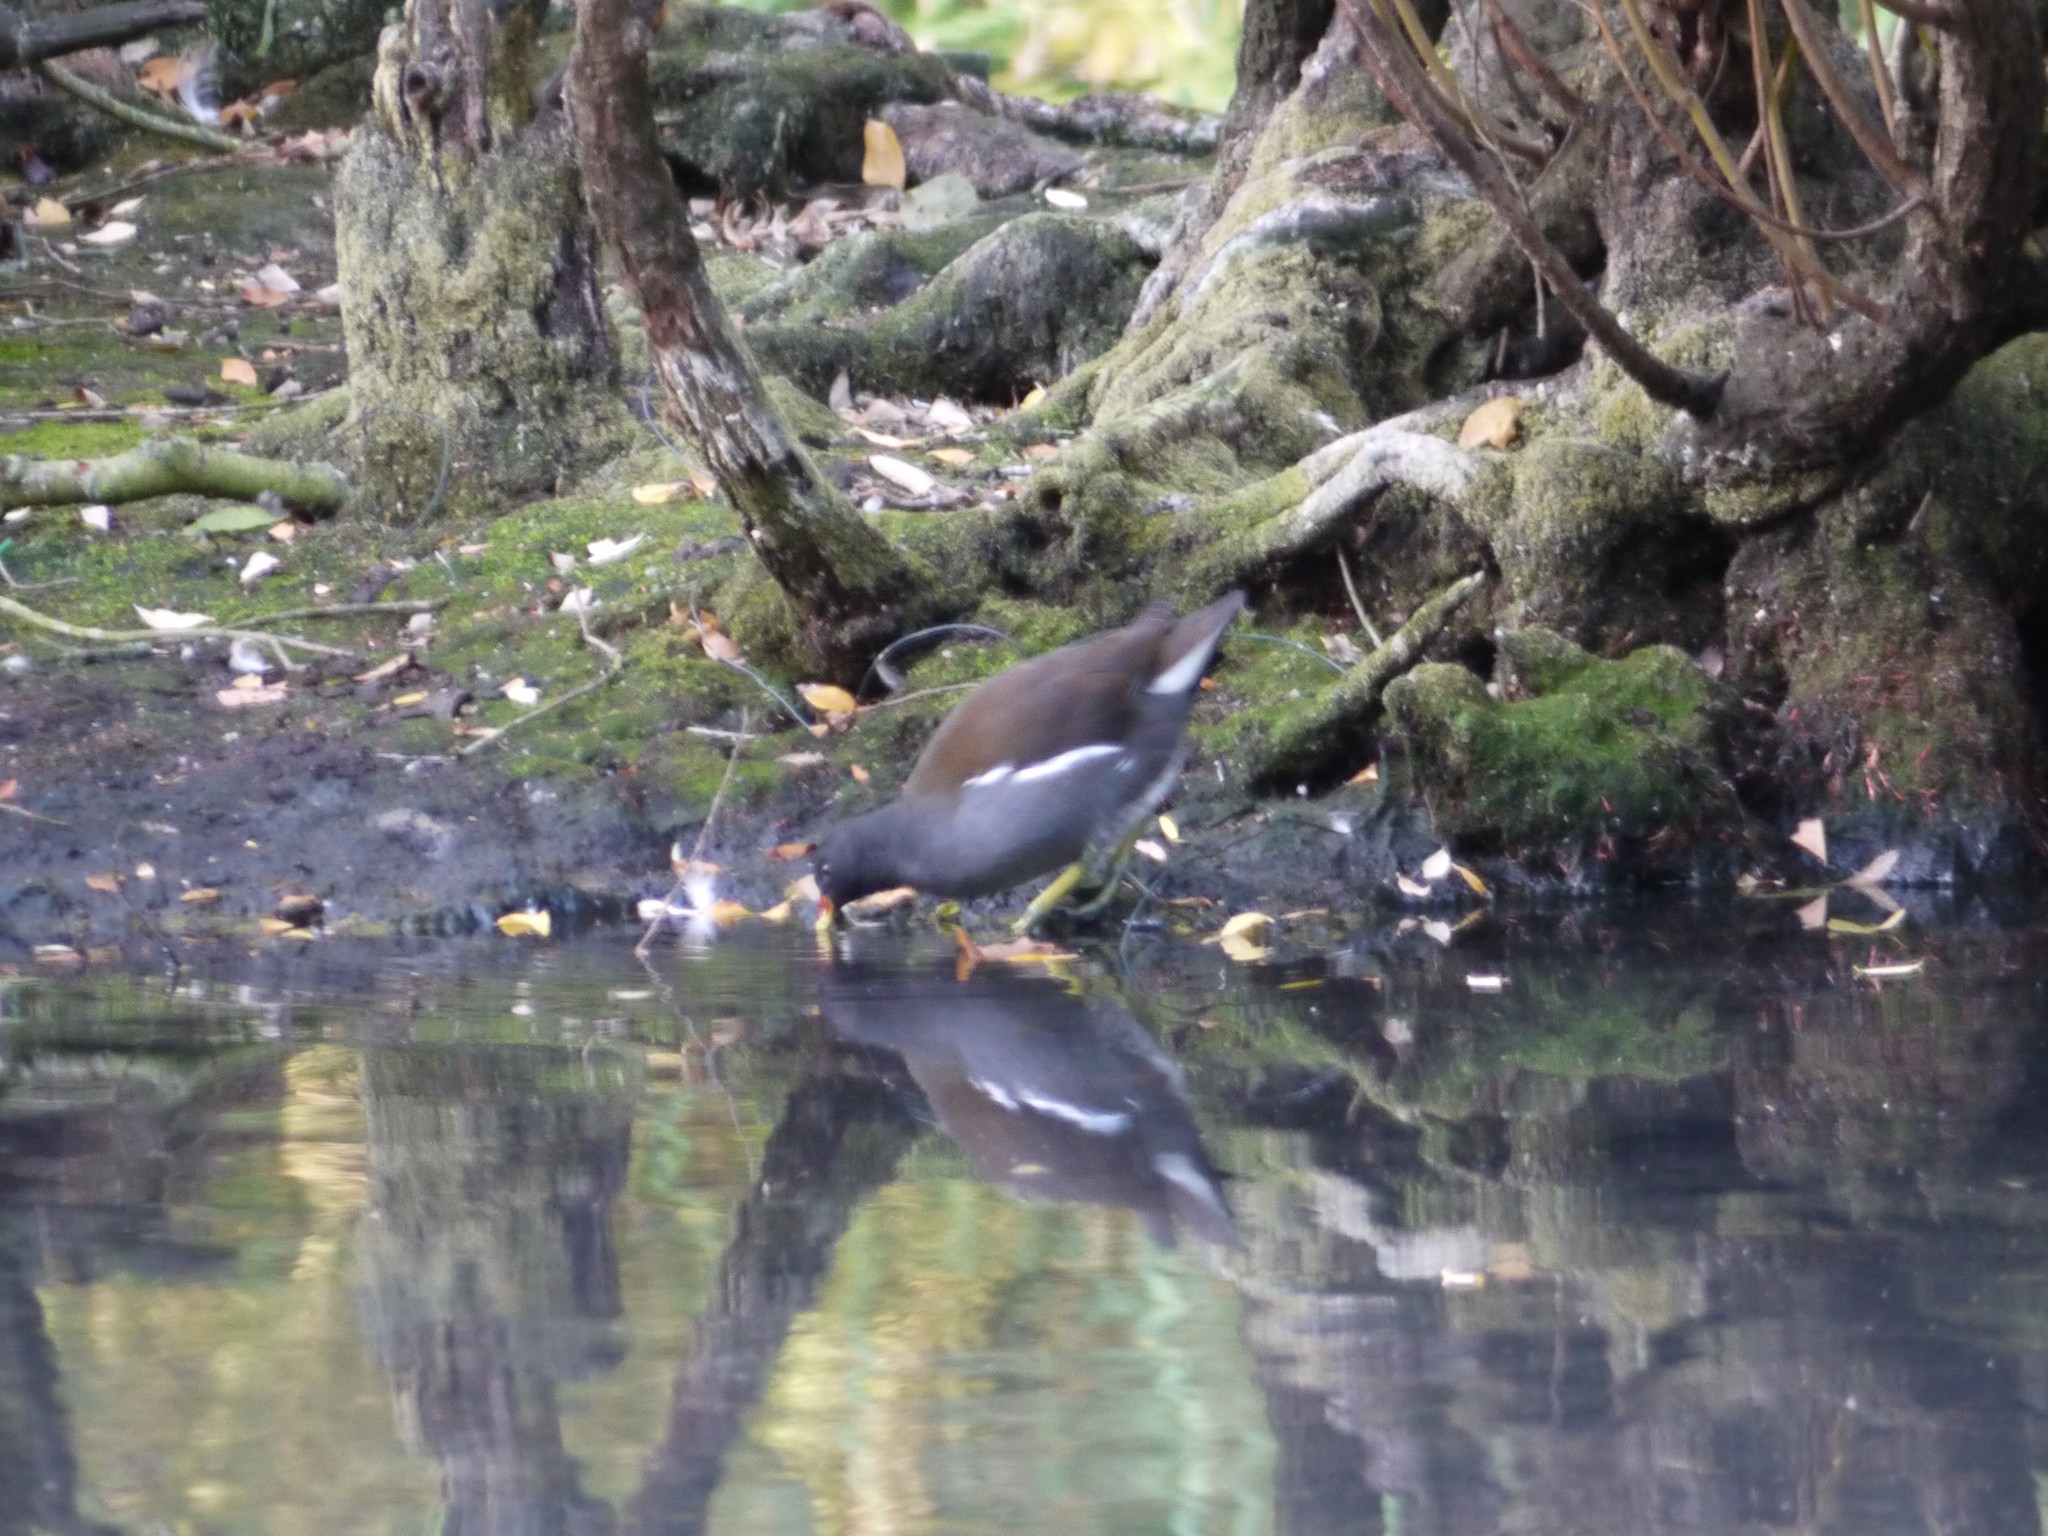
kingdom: Animalia
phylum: Chordata
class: Aves
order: Gruiformes
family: Rallidae
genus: Gallinula
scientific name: Gallinula chloropus
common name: Common moorhen
